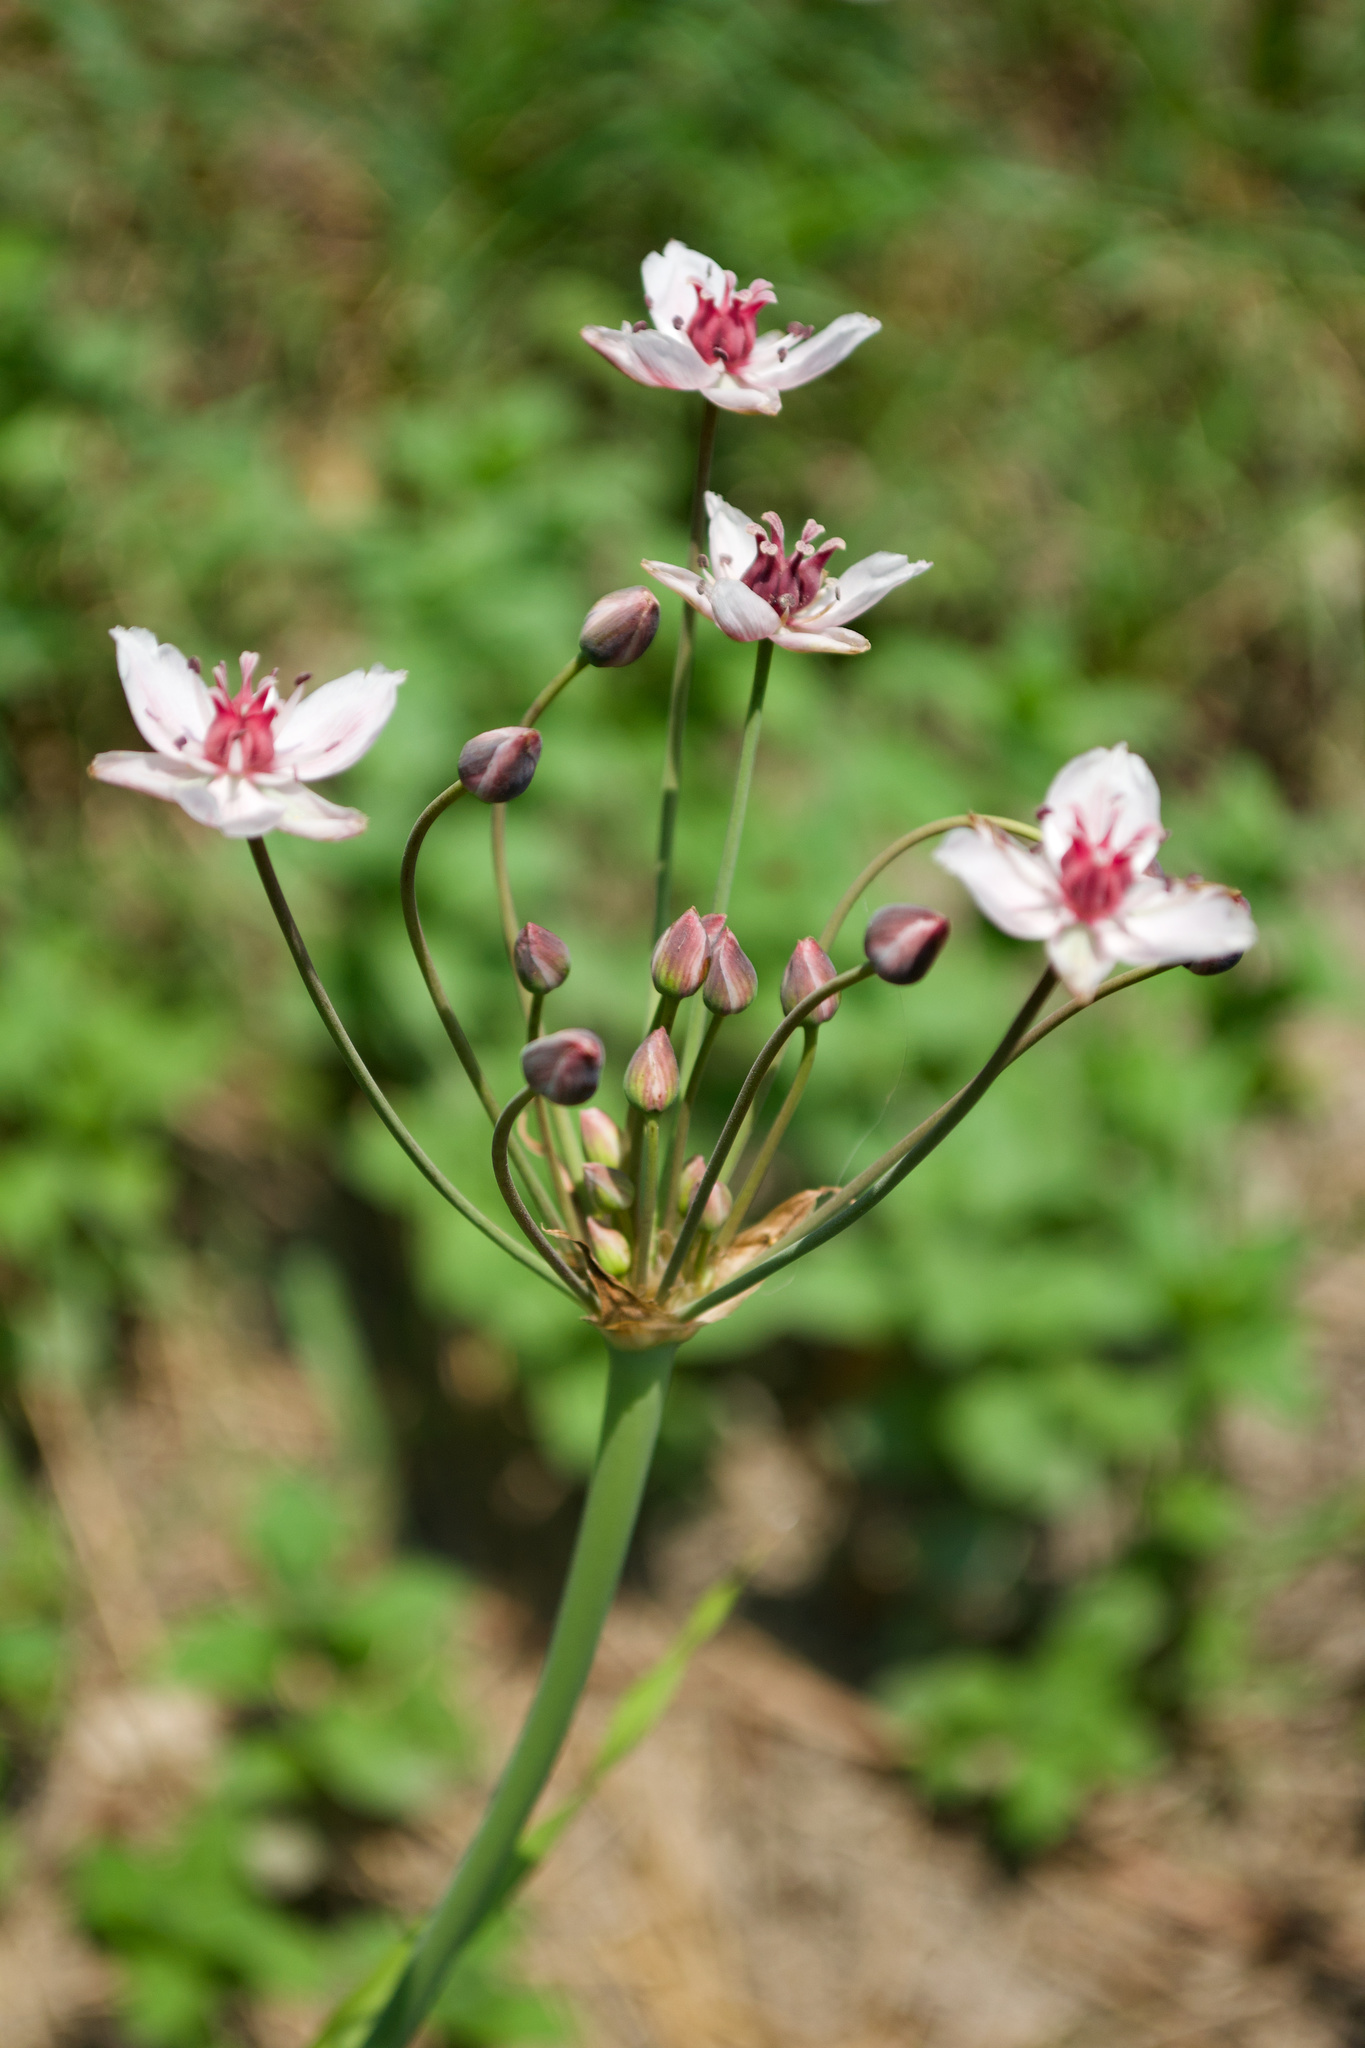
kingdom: Plantae
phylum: Tracheophyta
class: Liliopsida
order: Alismatales
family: Butomaceae
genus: Butomus
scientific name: Butomus umbellatus
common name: Flowering-rush
